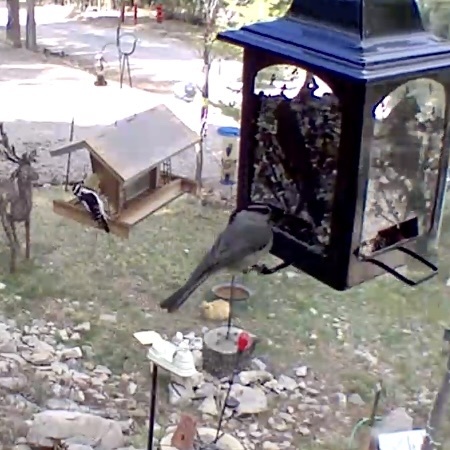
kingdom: Animalia
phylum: Chordata
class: Aves
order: Passeriformes
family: Paridae
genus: Poecile
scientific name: Poecile gambeli
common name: Mountain chickadee
